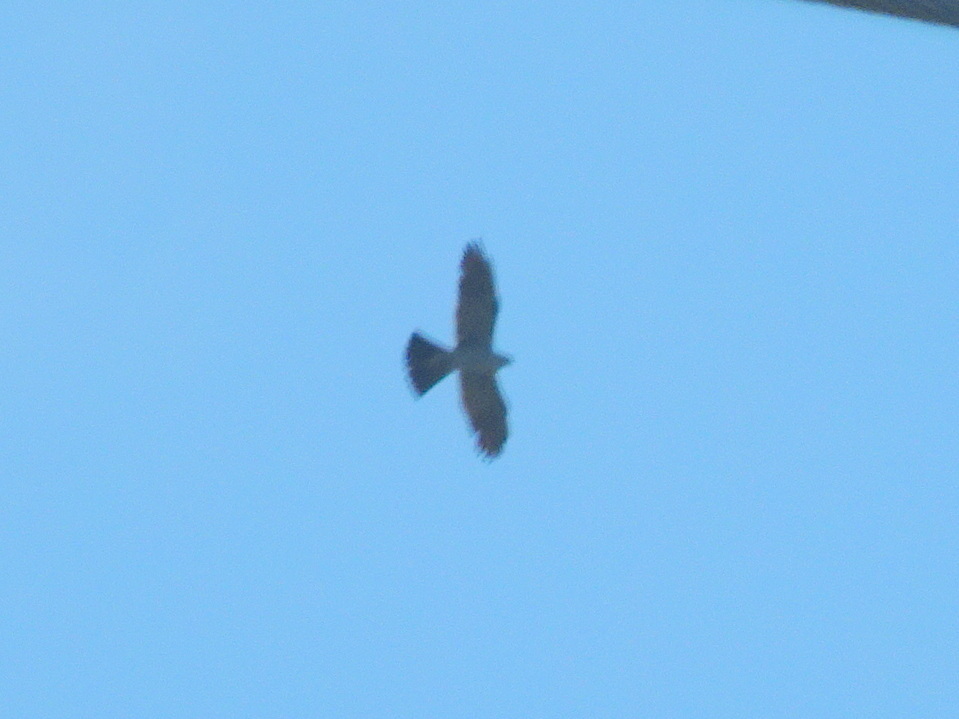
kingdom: Animalia
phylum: Chordata
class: Aves
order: Accipitriformes
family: Accipitridae
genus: Ictinia
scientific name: Ictinia mississippiensis
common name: Mississippi kite
